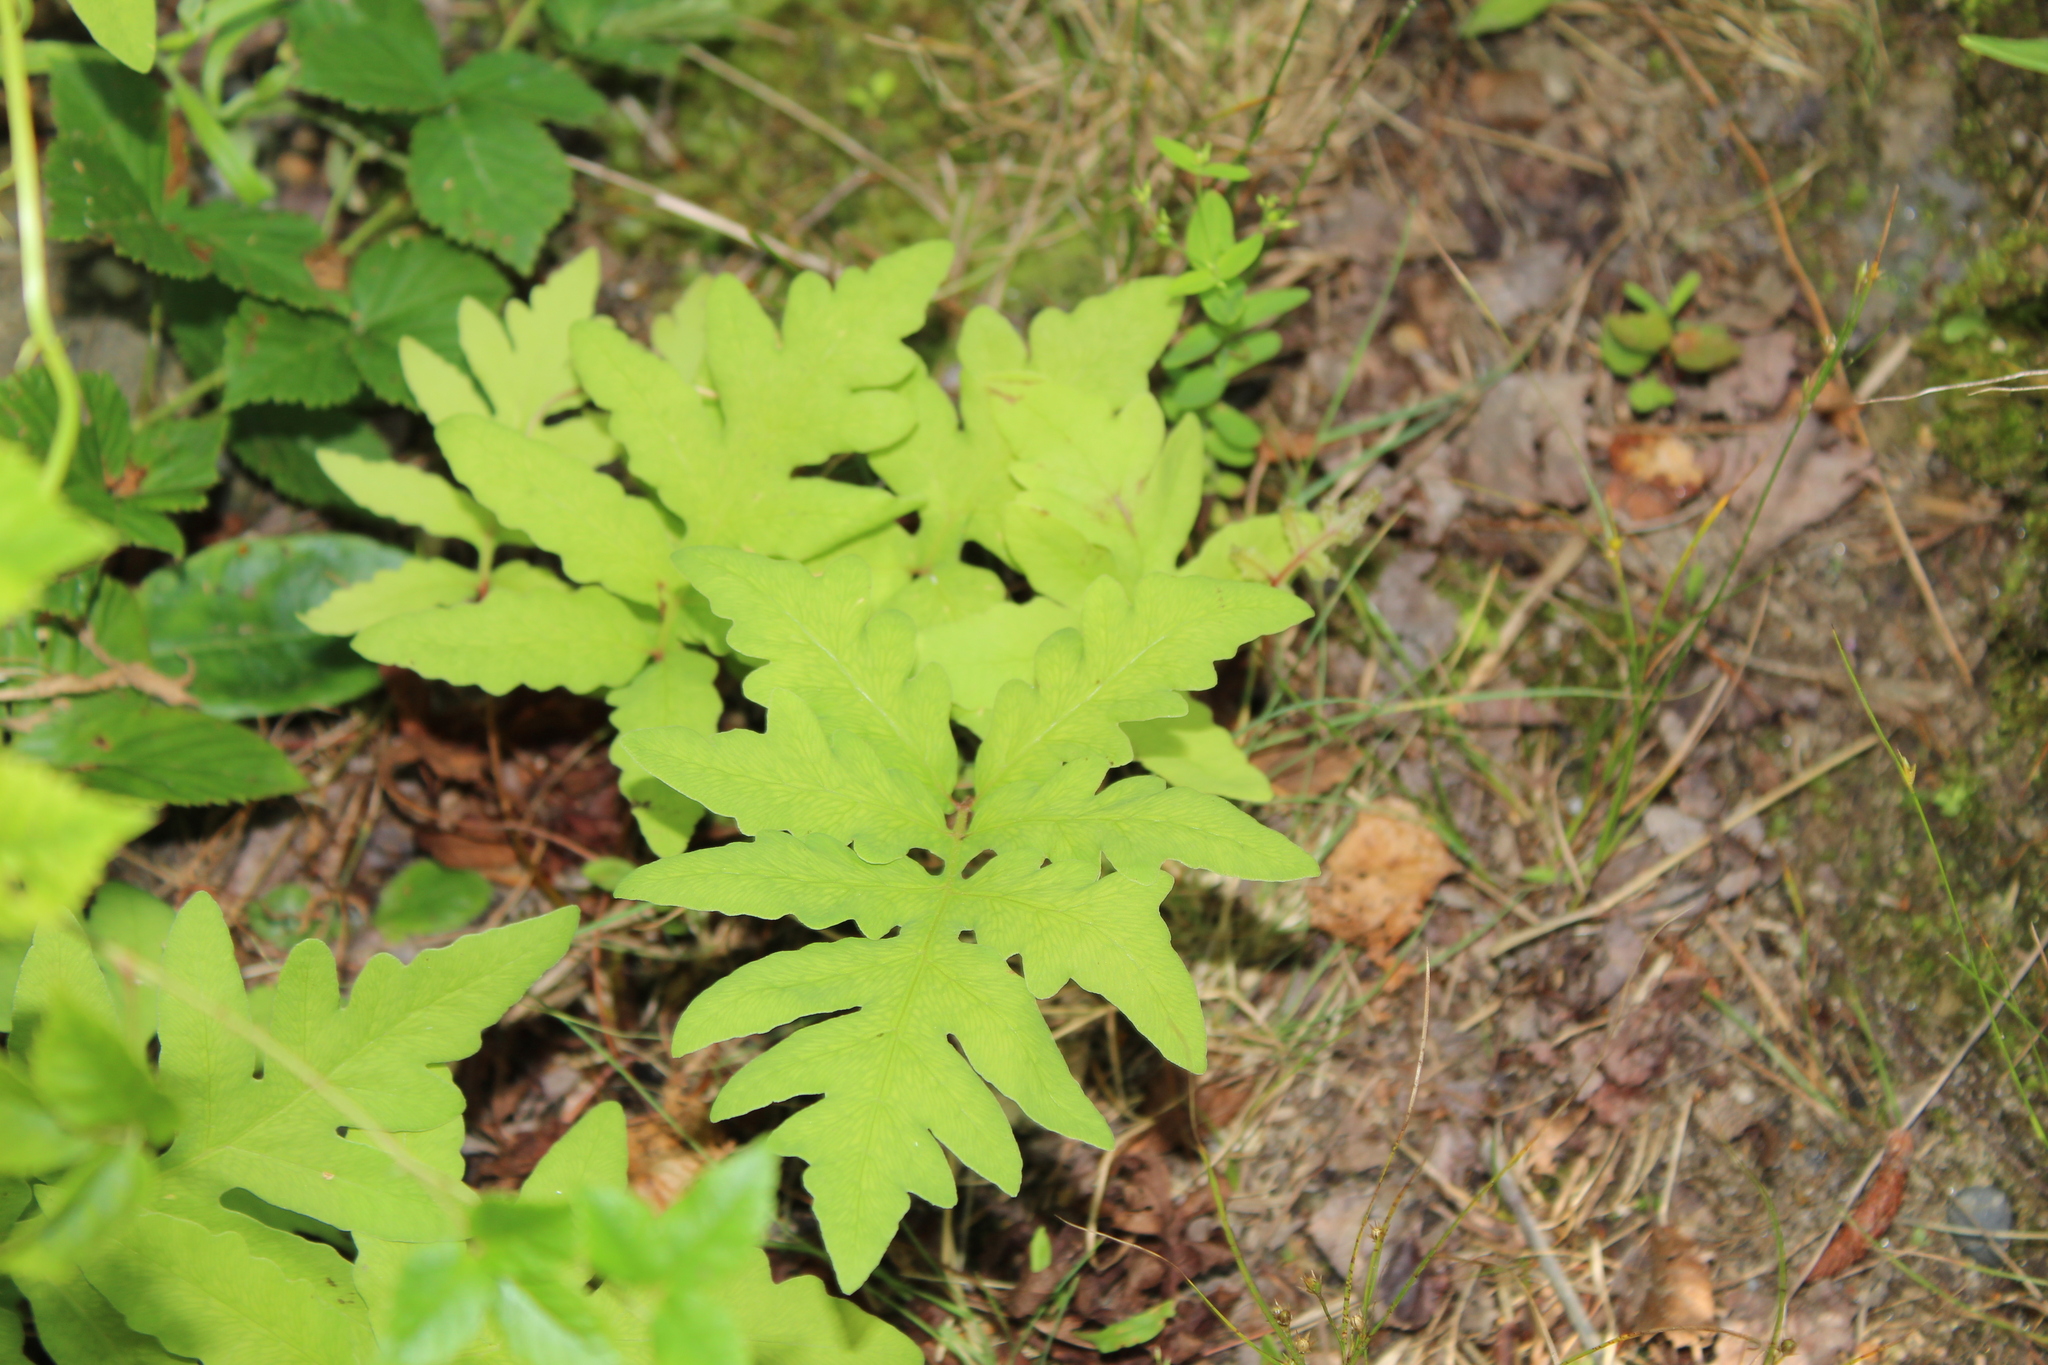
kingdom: Plantae
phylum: Tracheophyta
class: Polypodiopsida
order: Polypodiales
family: Onocleaceae
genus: Onoclea
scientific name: Onoclea sensibilis
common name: Sensitive fern
